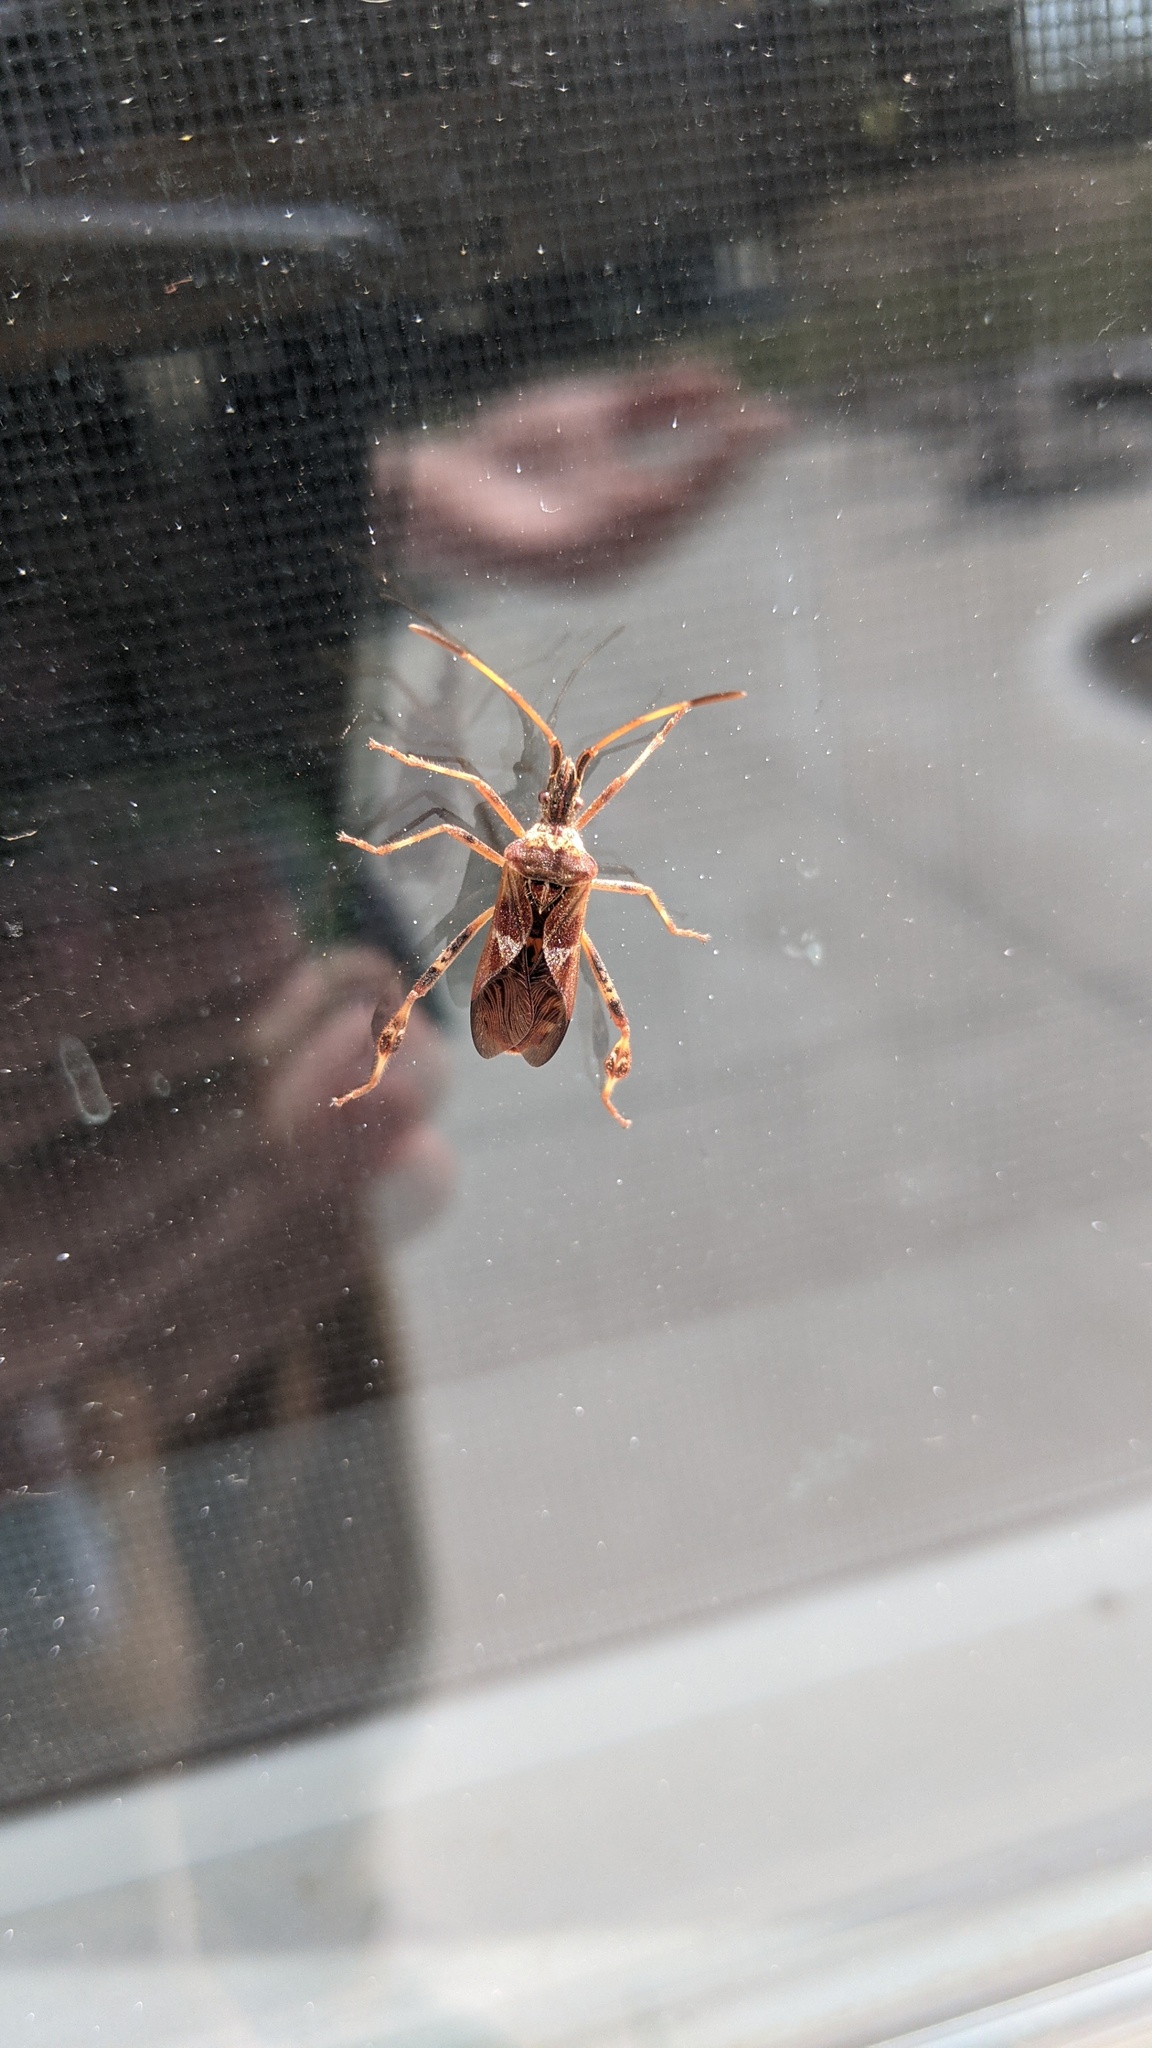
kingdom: Animalia
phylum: Arthropoda
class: Insecta
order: Hemiptera
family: Coreidae
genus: Leptoglossus
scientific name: Leptoglossus occidentalis
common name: Western conifer-seed bug
